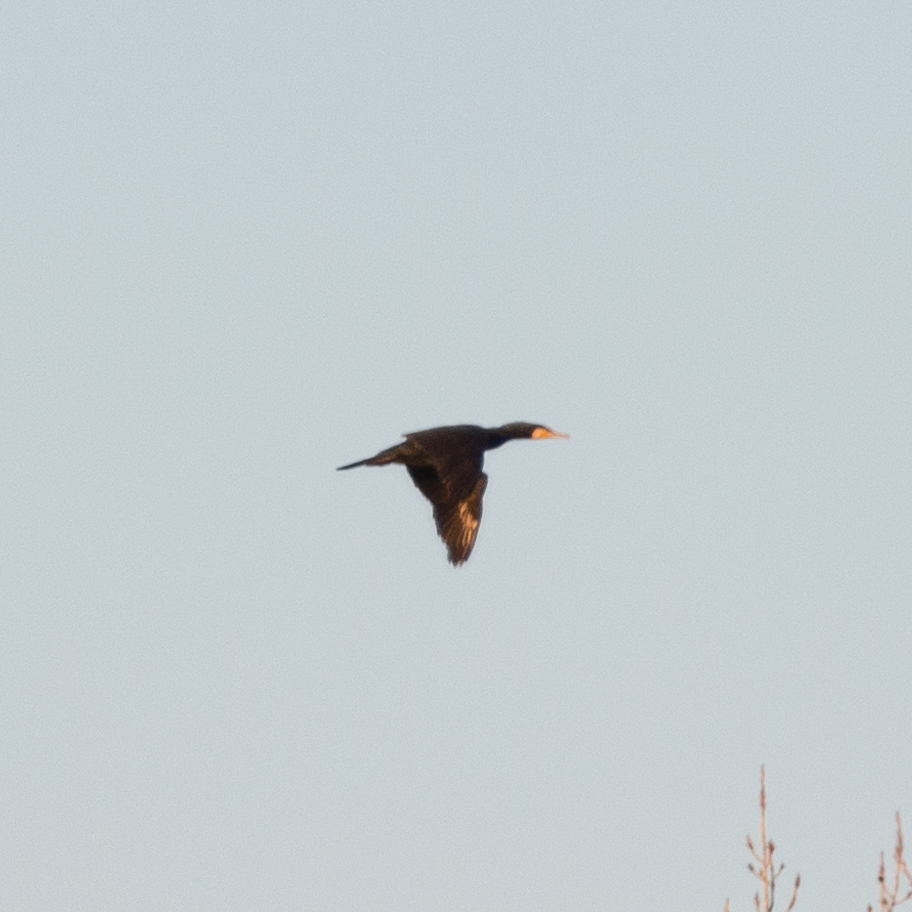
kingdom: Animalia
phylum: Chordata
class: Aves
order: Suliformes
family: Phalacrocoracidae
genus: Phalacrocorax
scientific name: Phalacrocorax carbo
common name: Great cormorant
